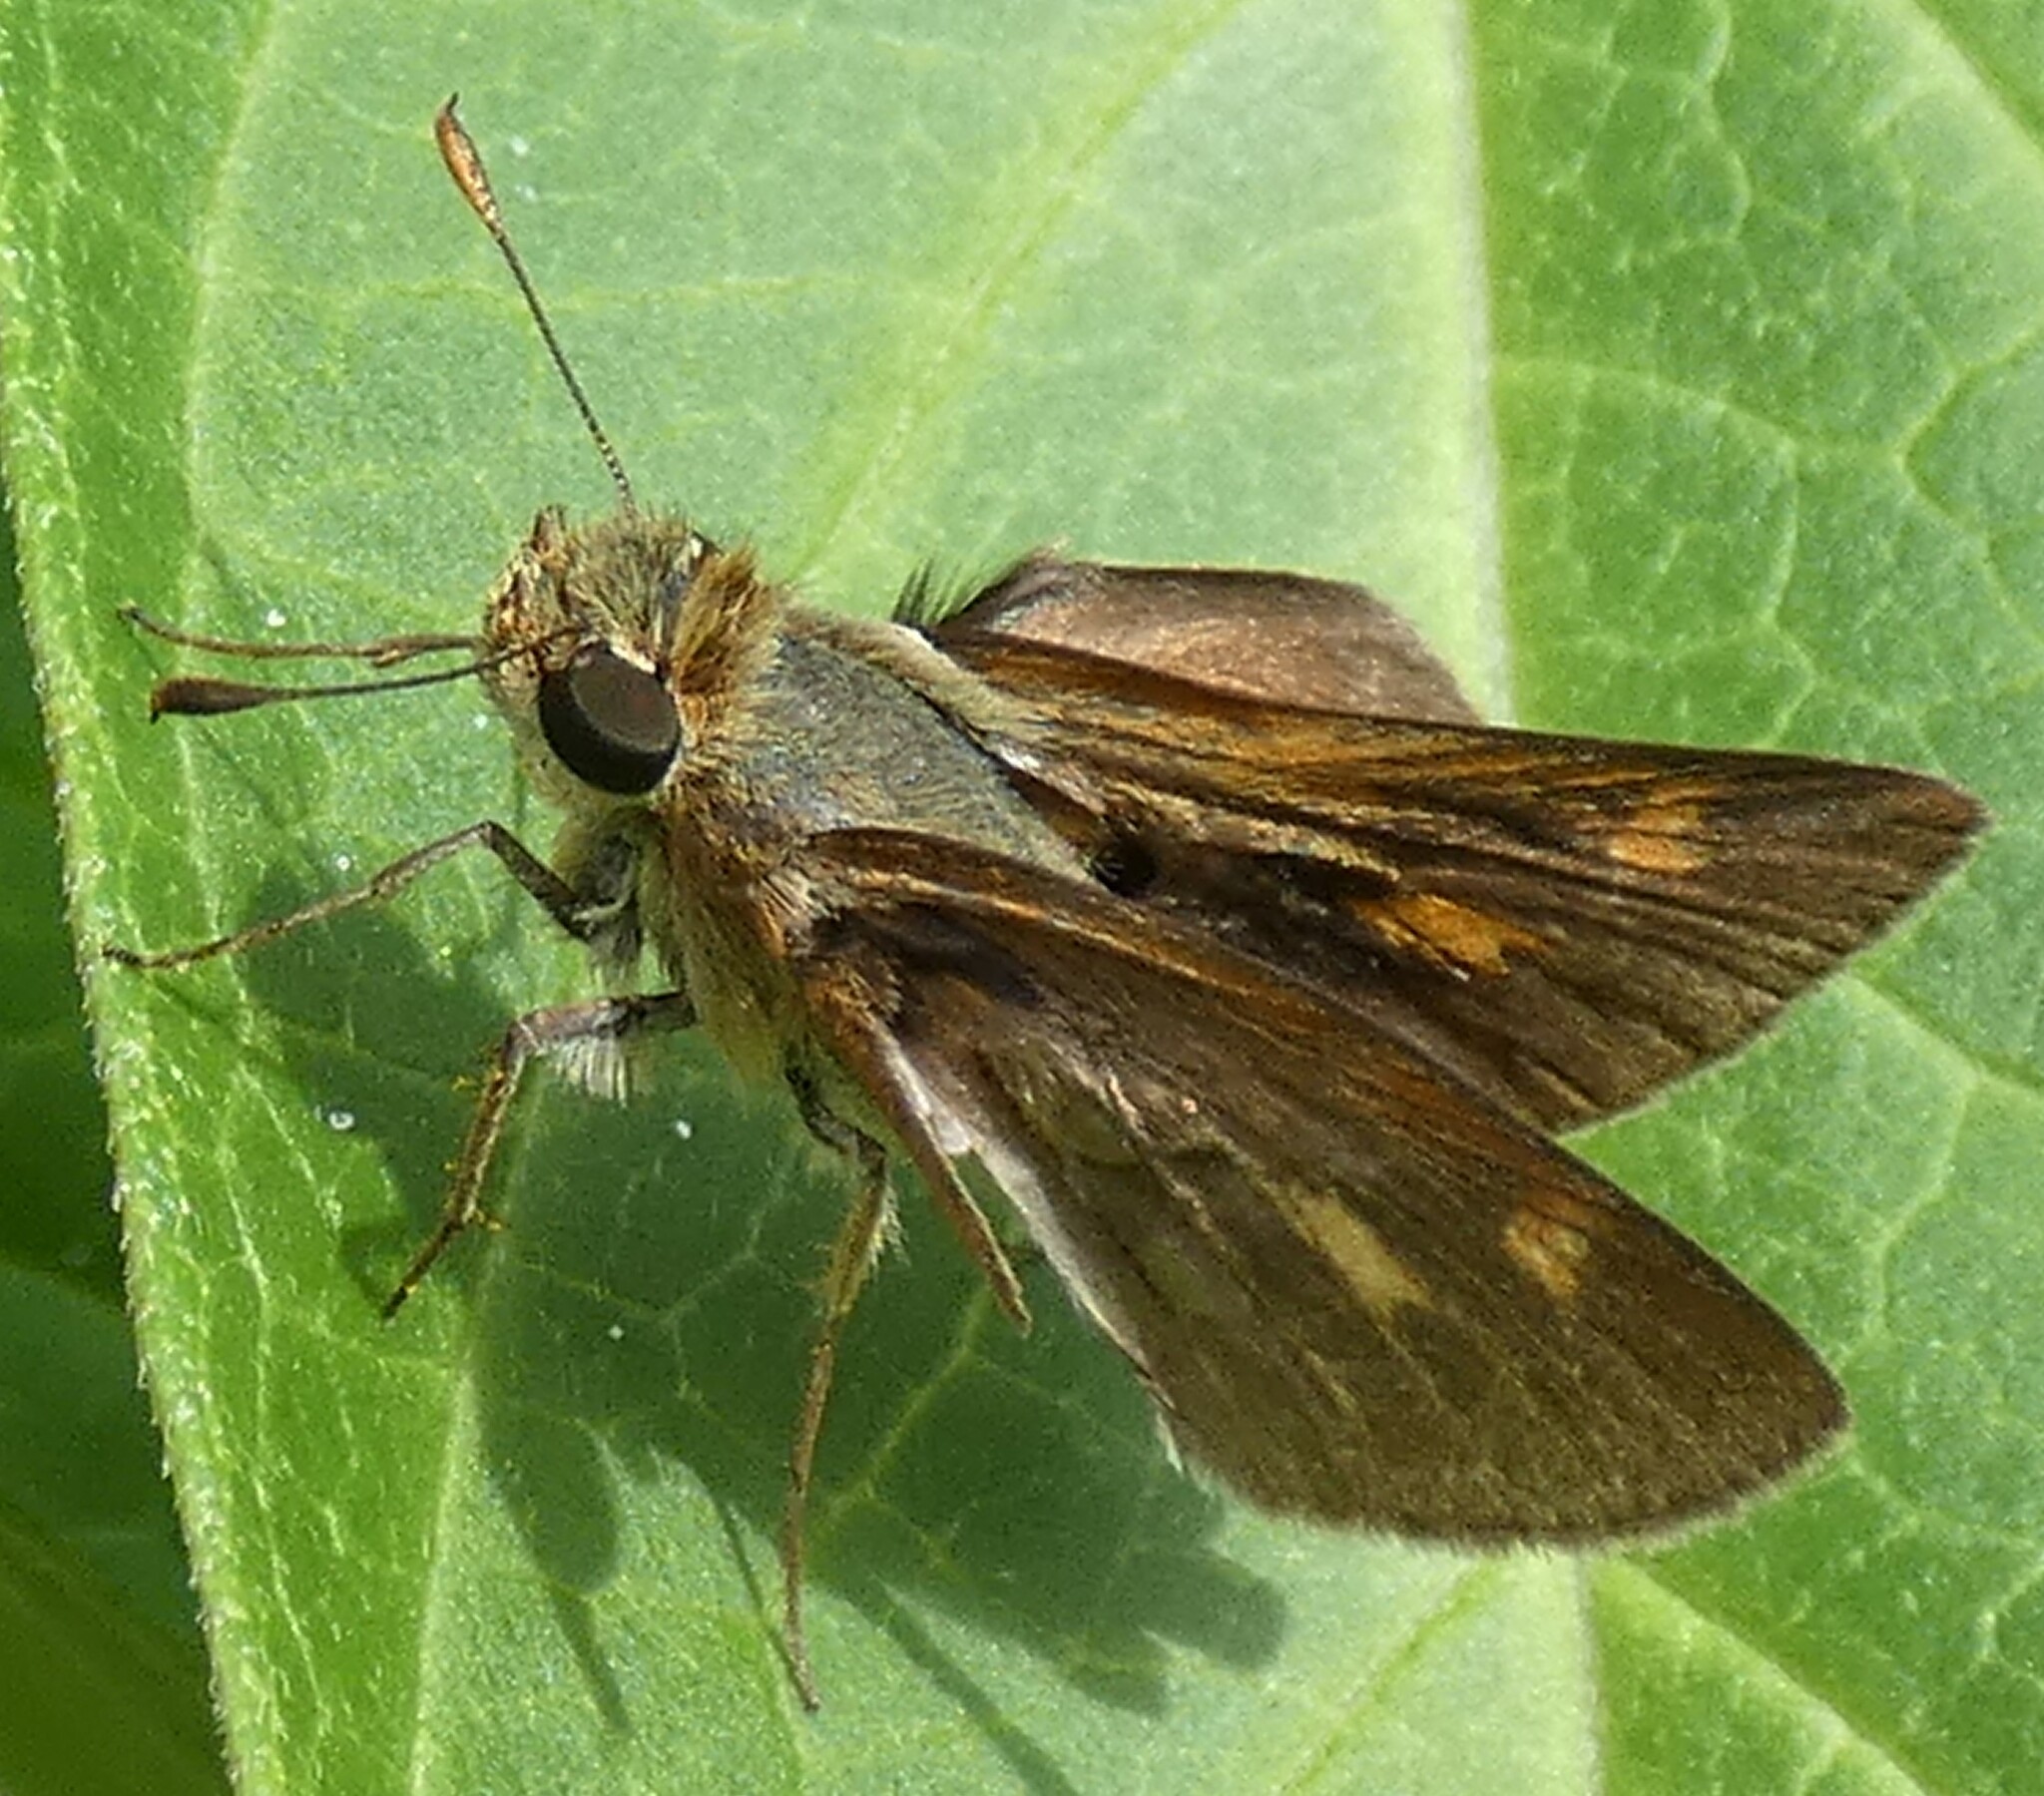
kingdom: Animalia
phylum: Arthropoda
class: Insecta
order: Lepidoptera
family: Hesperiidae
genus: Polites
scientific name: Polites otho
